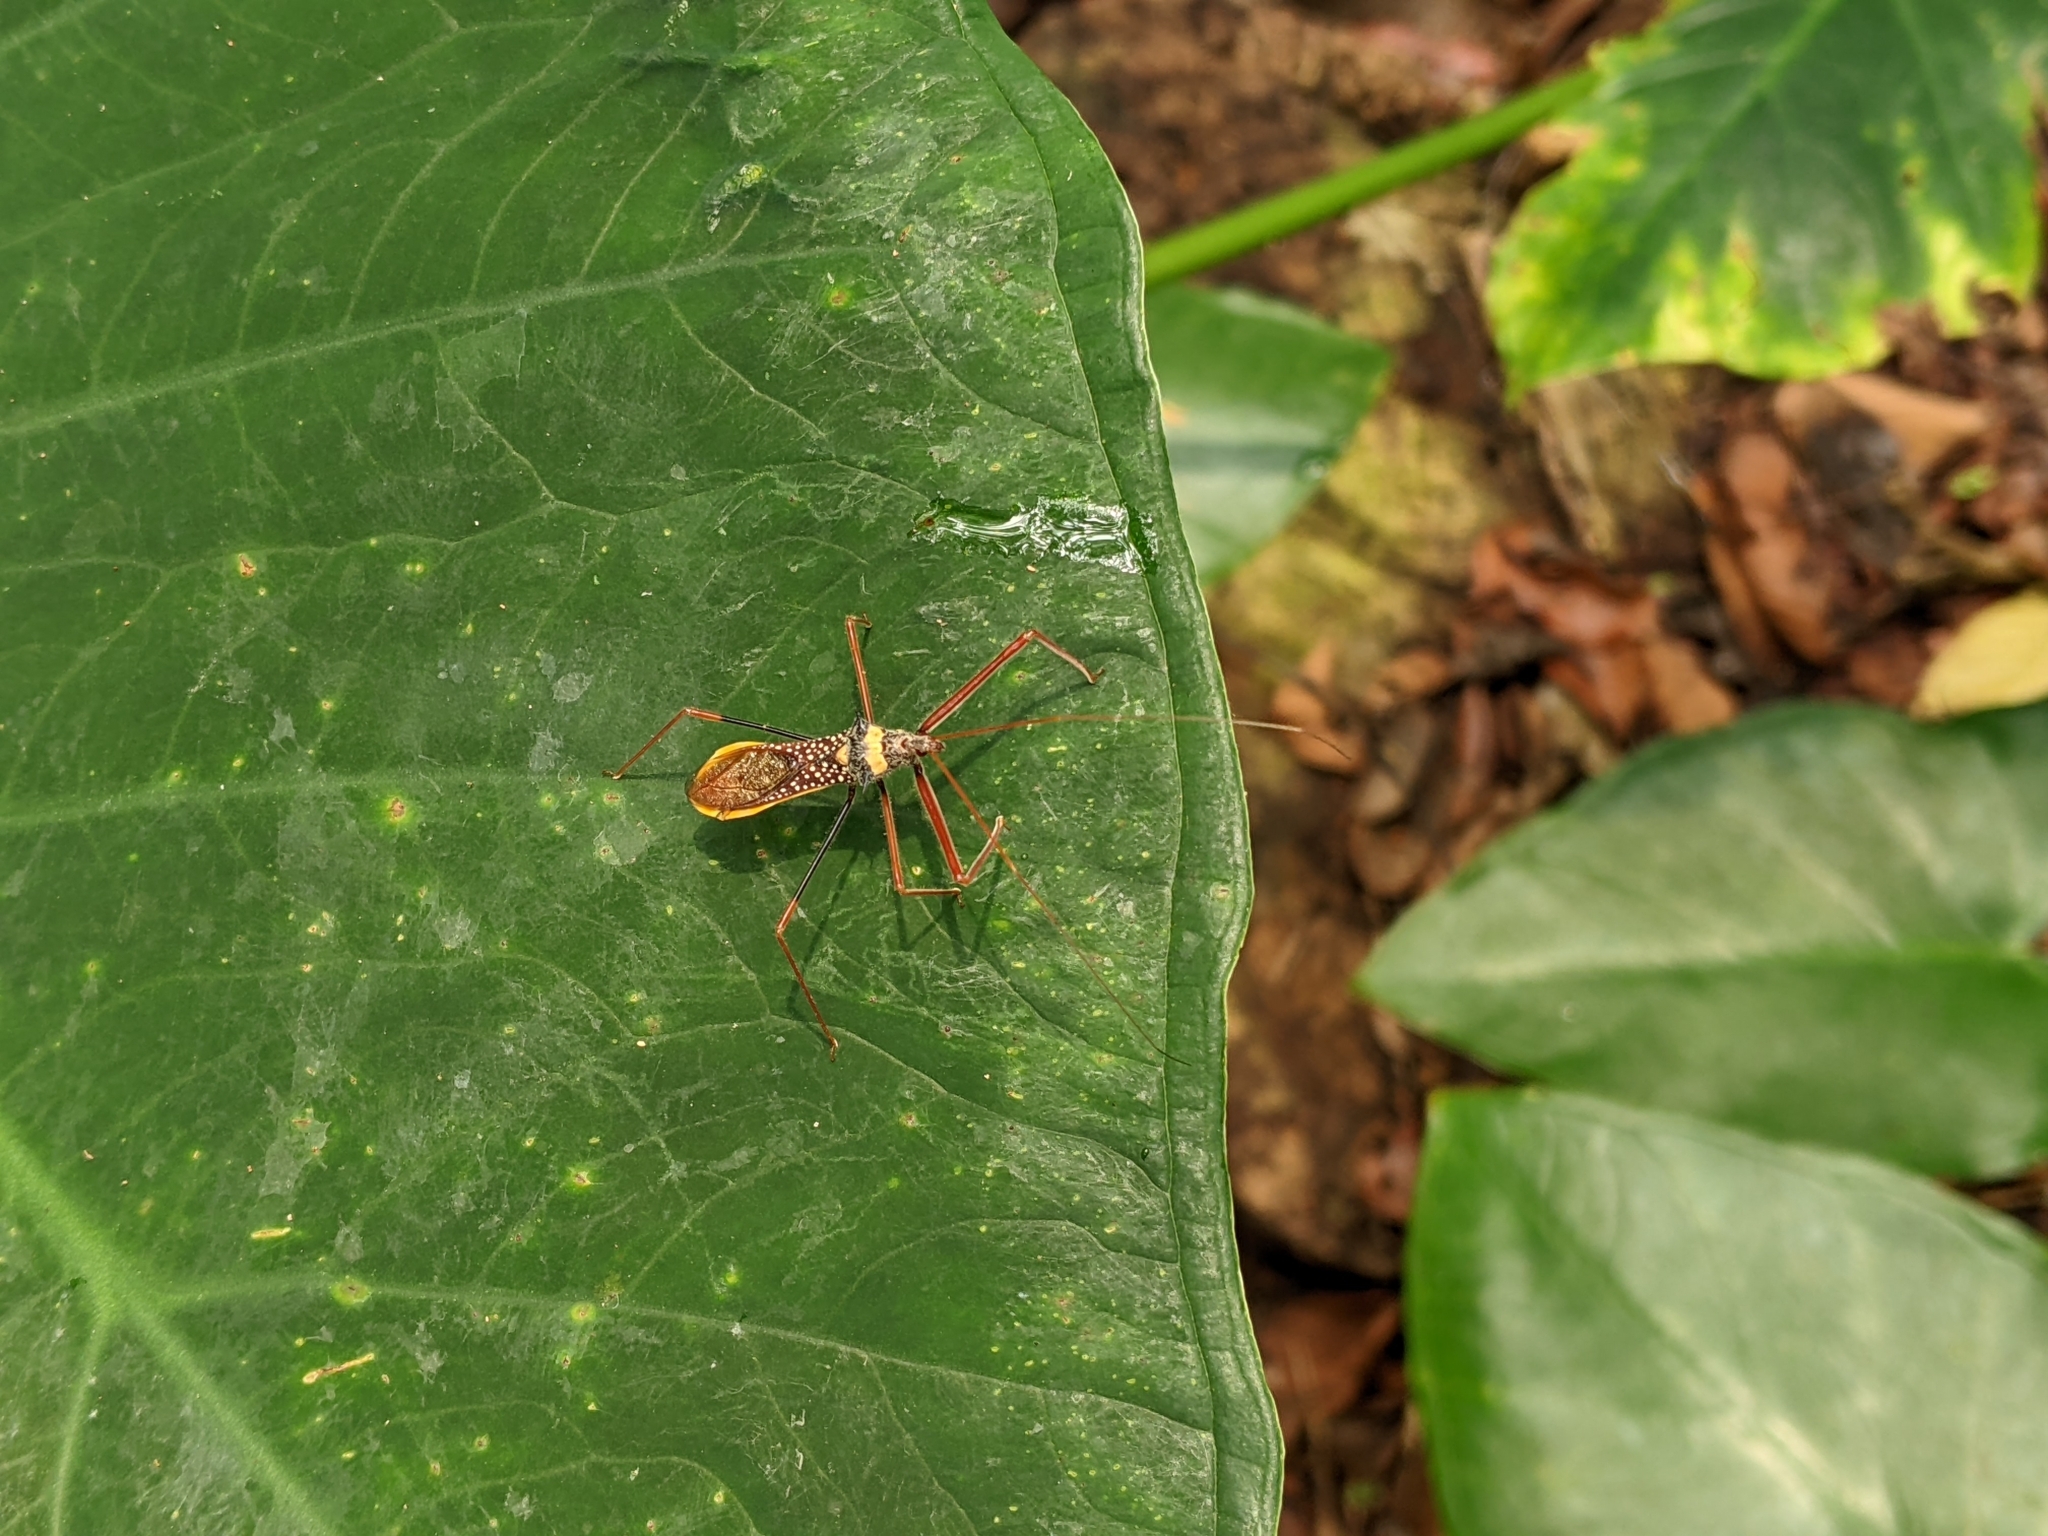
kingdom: Animalia
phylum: Arthropoda
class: Insecta
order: Hemiptera
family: Reduviidae
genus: Epidaus
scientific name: Epidaus transversus
